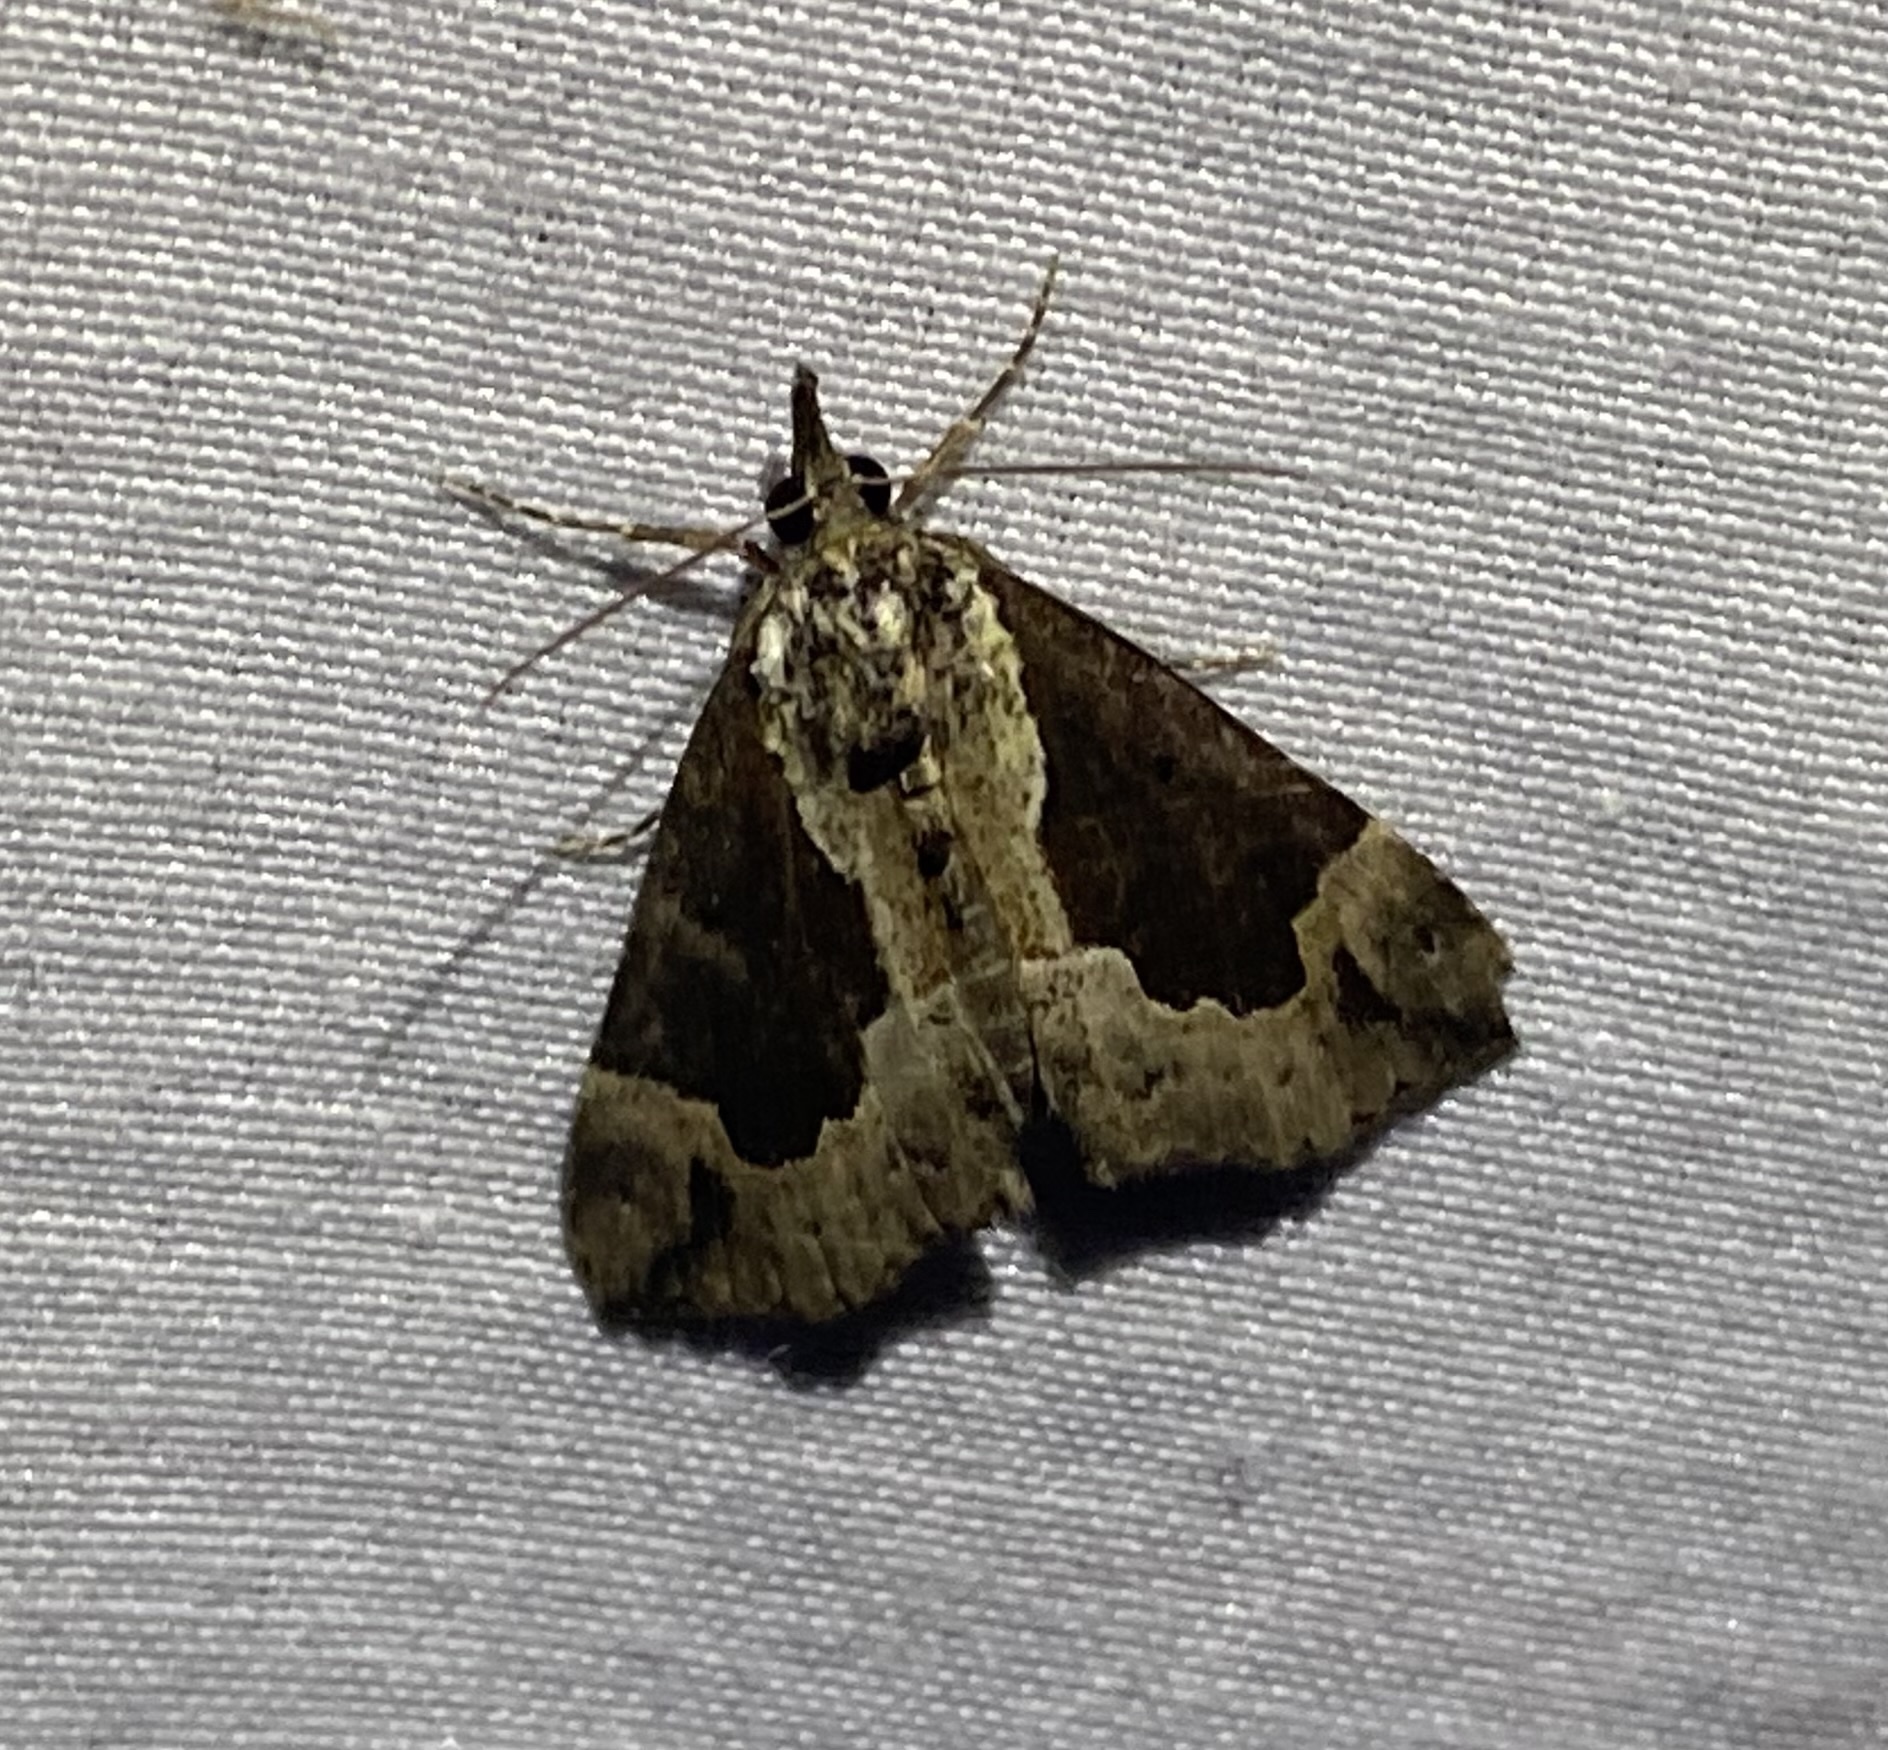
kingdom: Animalia
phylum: Arthropoda
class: Insecta
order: Lepidoptera
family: Erebidae
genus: Hypena
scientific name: Hypena baltimoralis
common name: Baltimore snout
